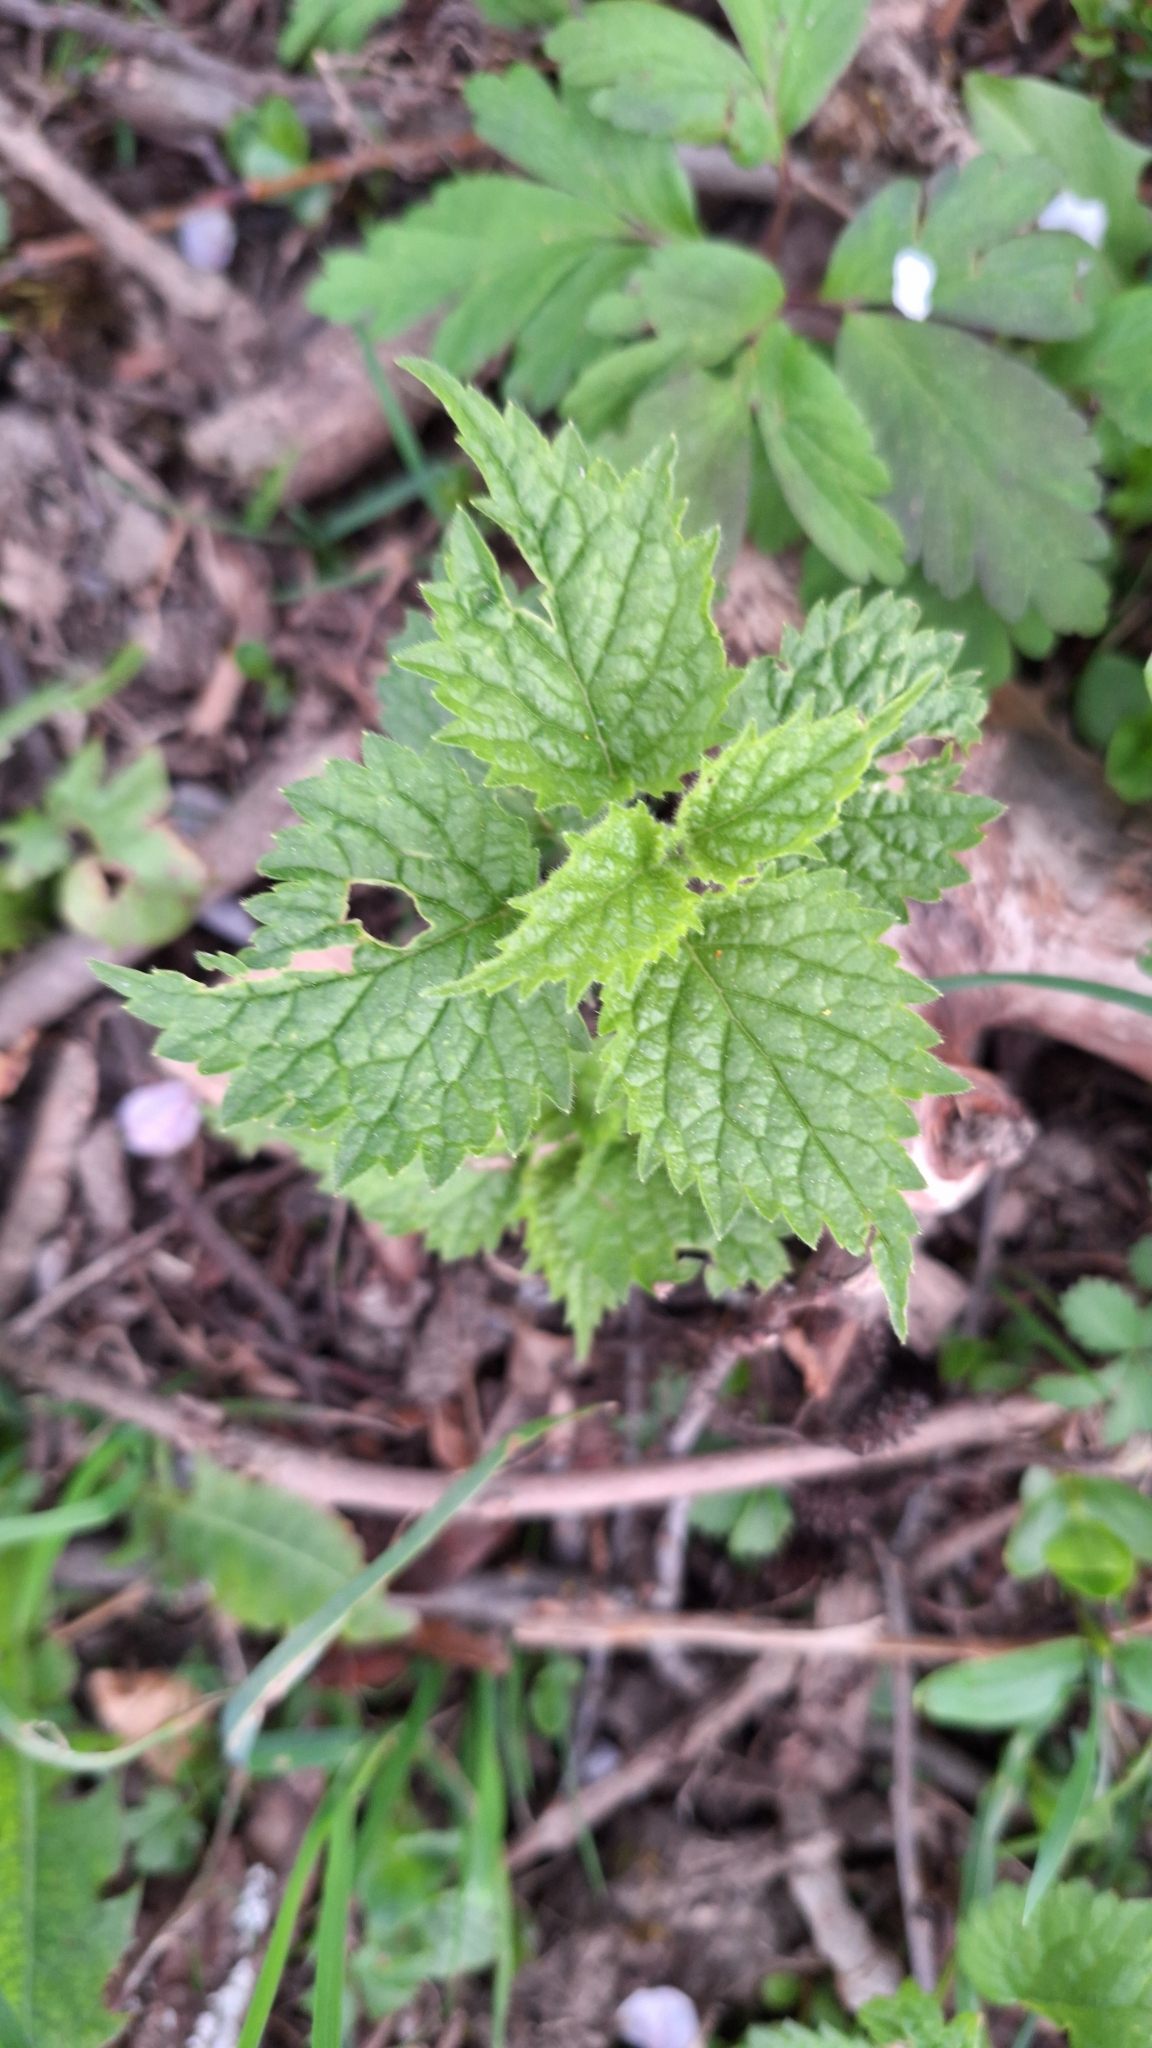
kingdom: Plantae
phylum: Tracheophyta
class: Magnoliopsida
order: Lamiales
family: Lamiaceae
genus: Lamium
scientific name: Lamium galeobdolon
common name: Yellow archangel
